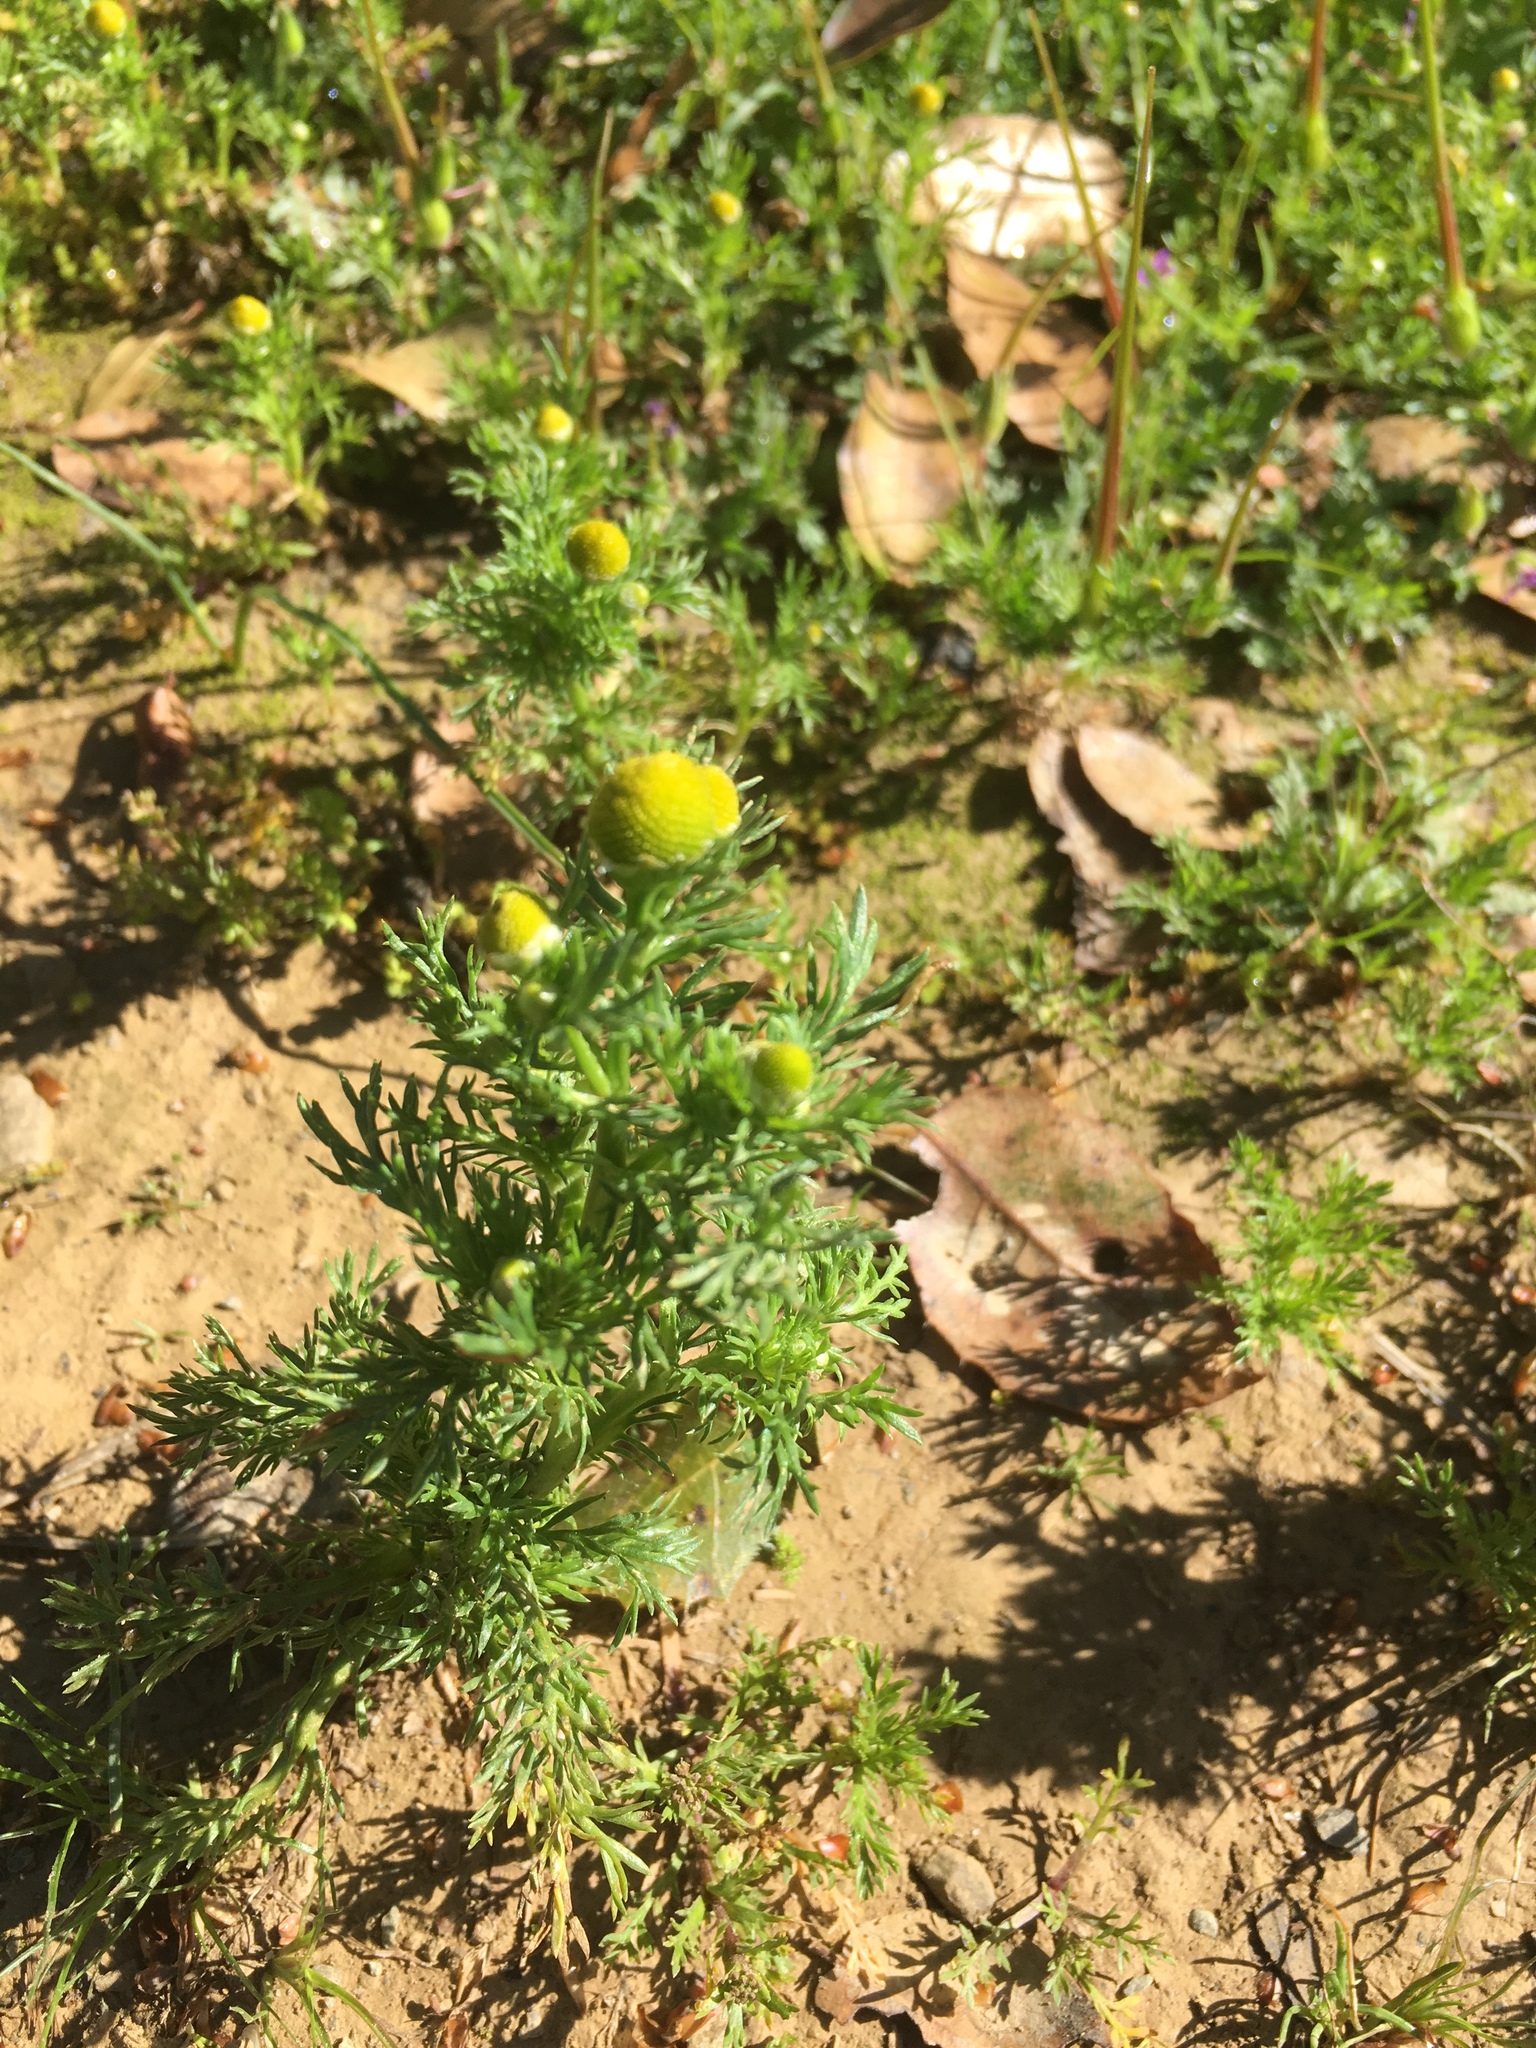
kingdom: Plantae
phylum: Tracheophyta
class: Magnoliopsida
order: Asterales
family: Asteraceae
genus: Matricaria
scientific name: Matricaria discoidea
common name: Disc mayweed
